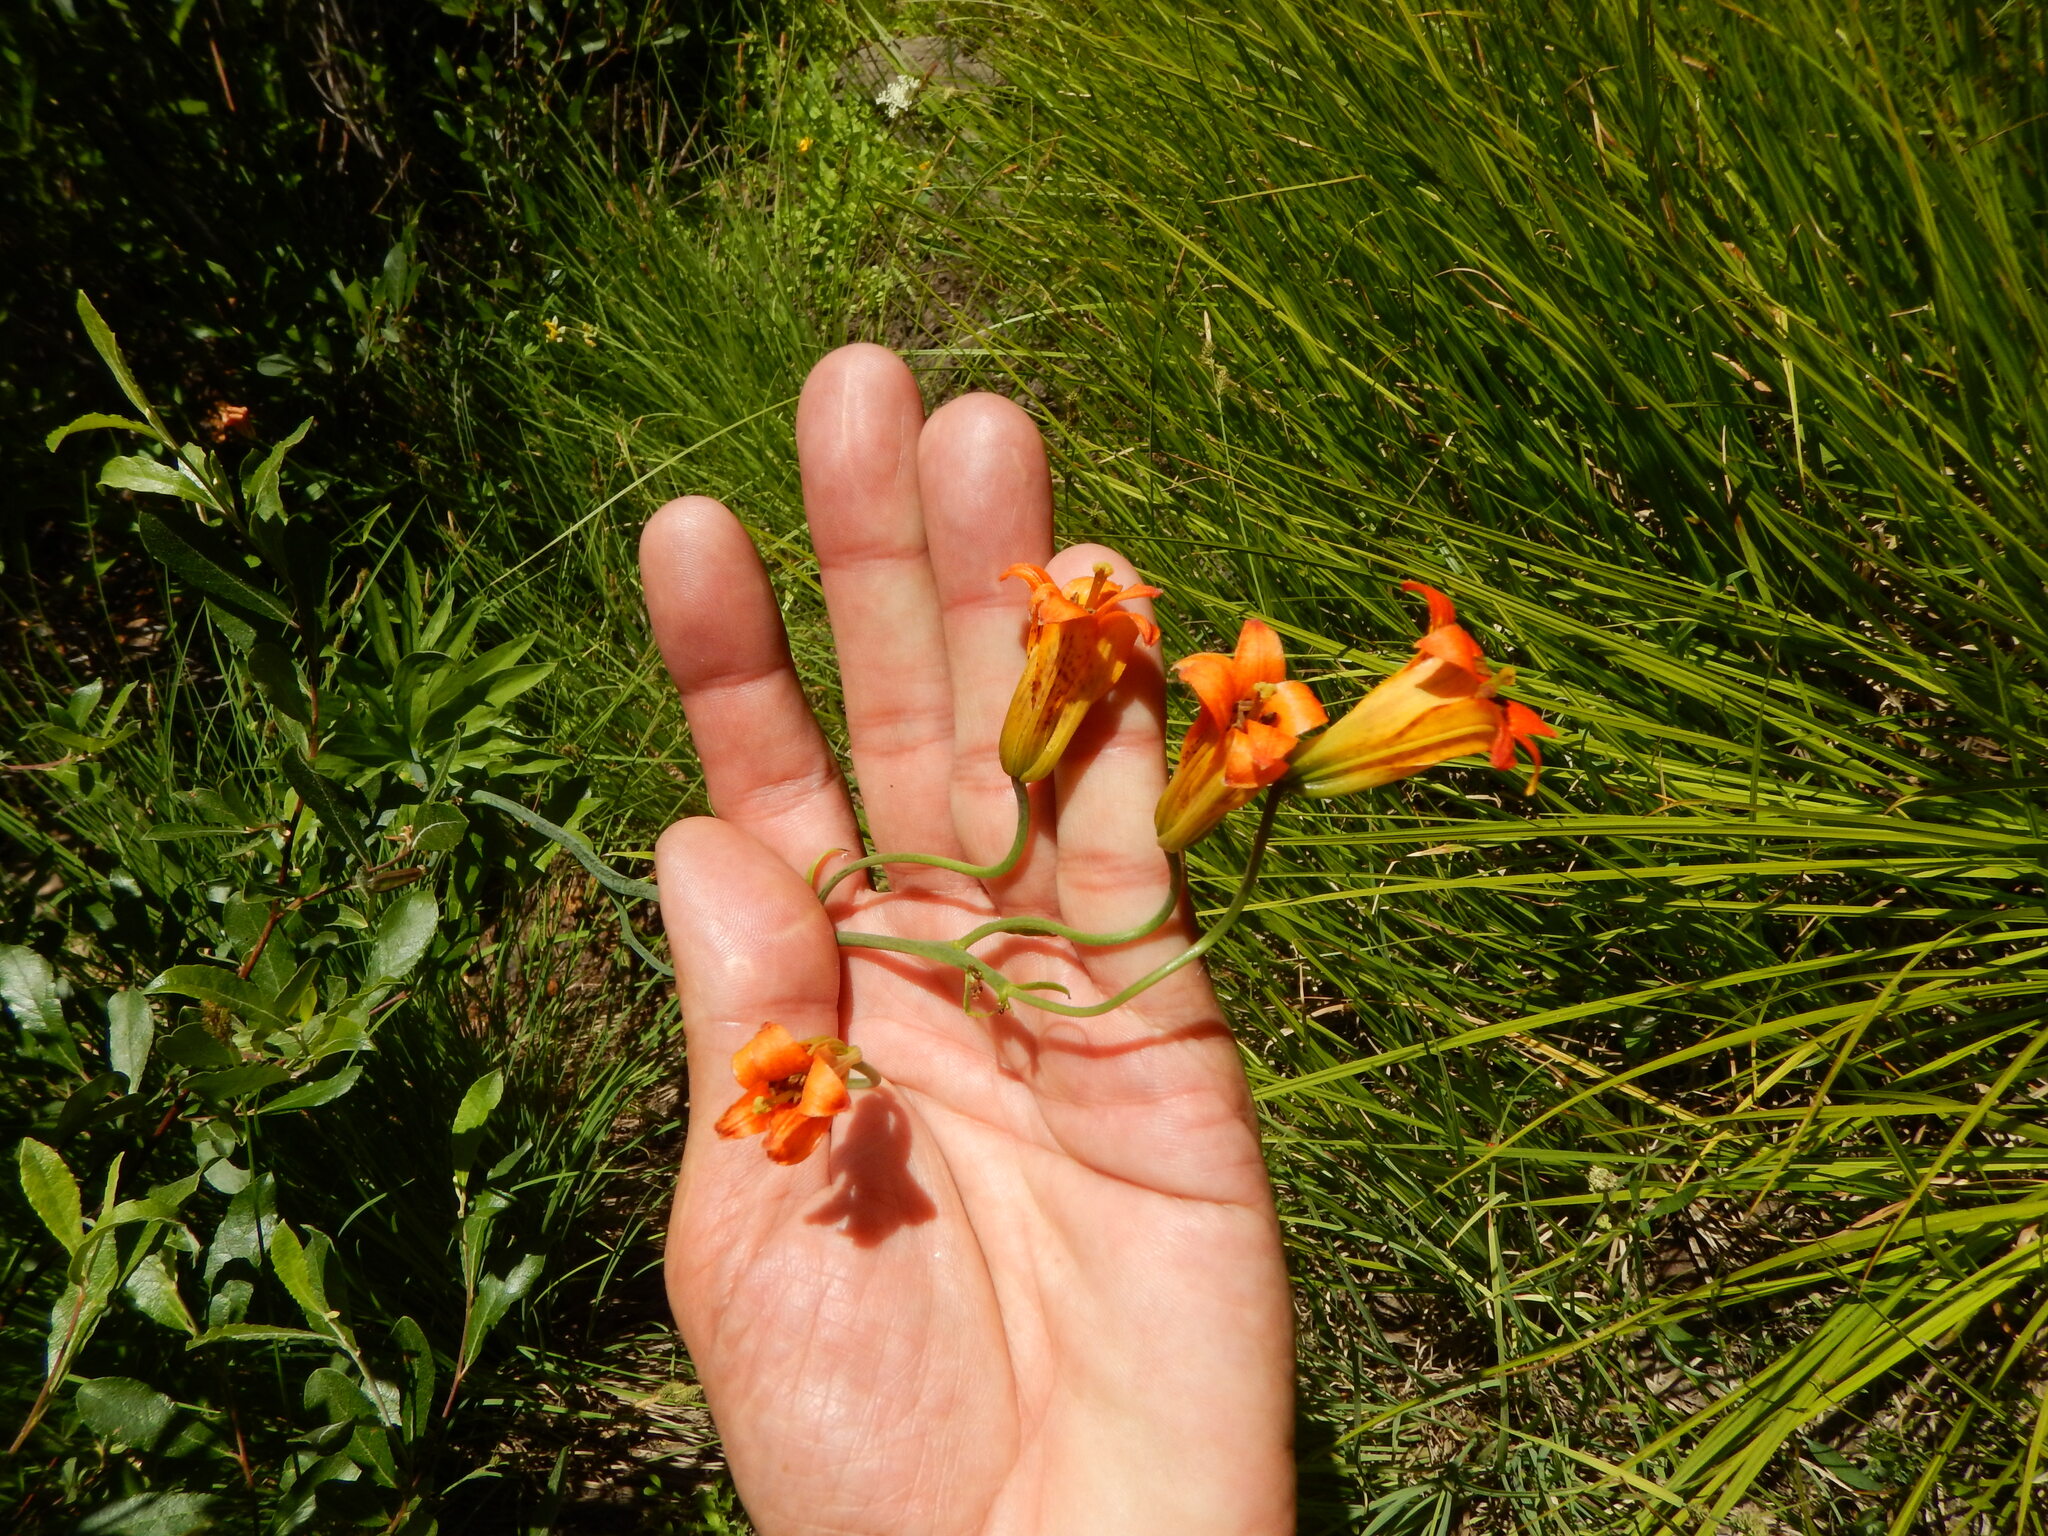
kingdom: Plantae
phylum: Tracheophyta
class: Liliopsida
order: Liliales
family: Liliaceae
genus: Lilium
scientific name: Lilium parvum
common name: Alpine lily
